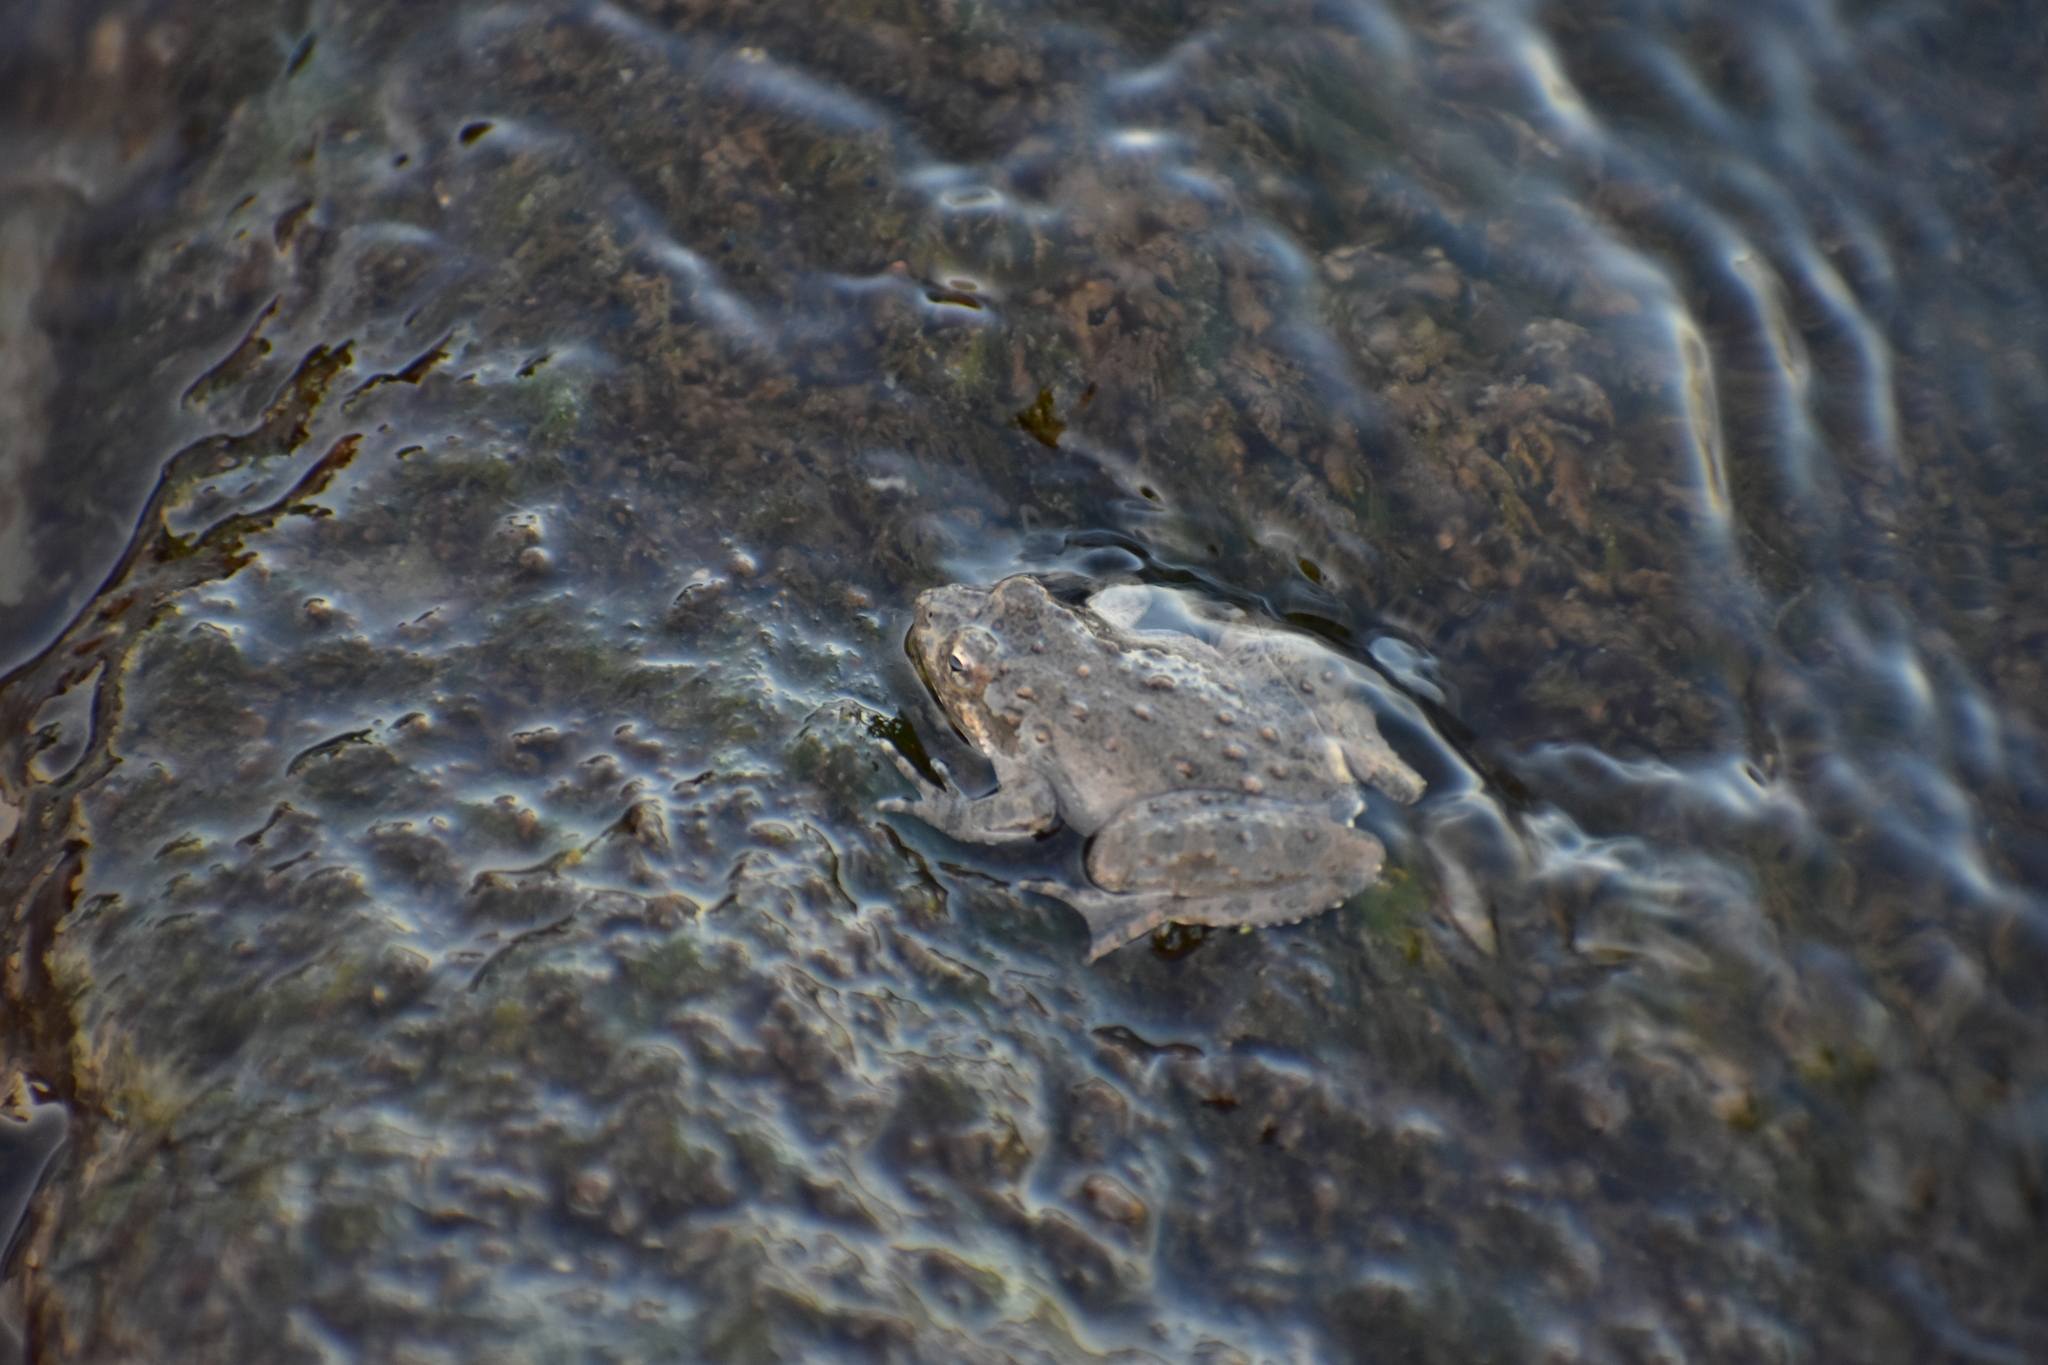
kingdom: Animalia
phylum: Chordata
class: Amphibia
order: Anura
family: Hylidae
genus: Acris
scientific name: Acris blanchardi
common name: Blanchard's cricket frog
